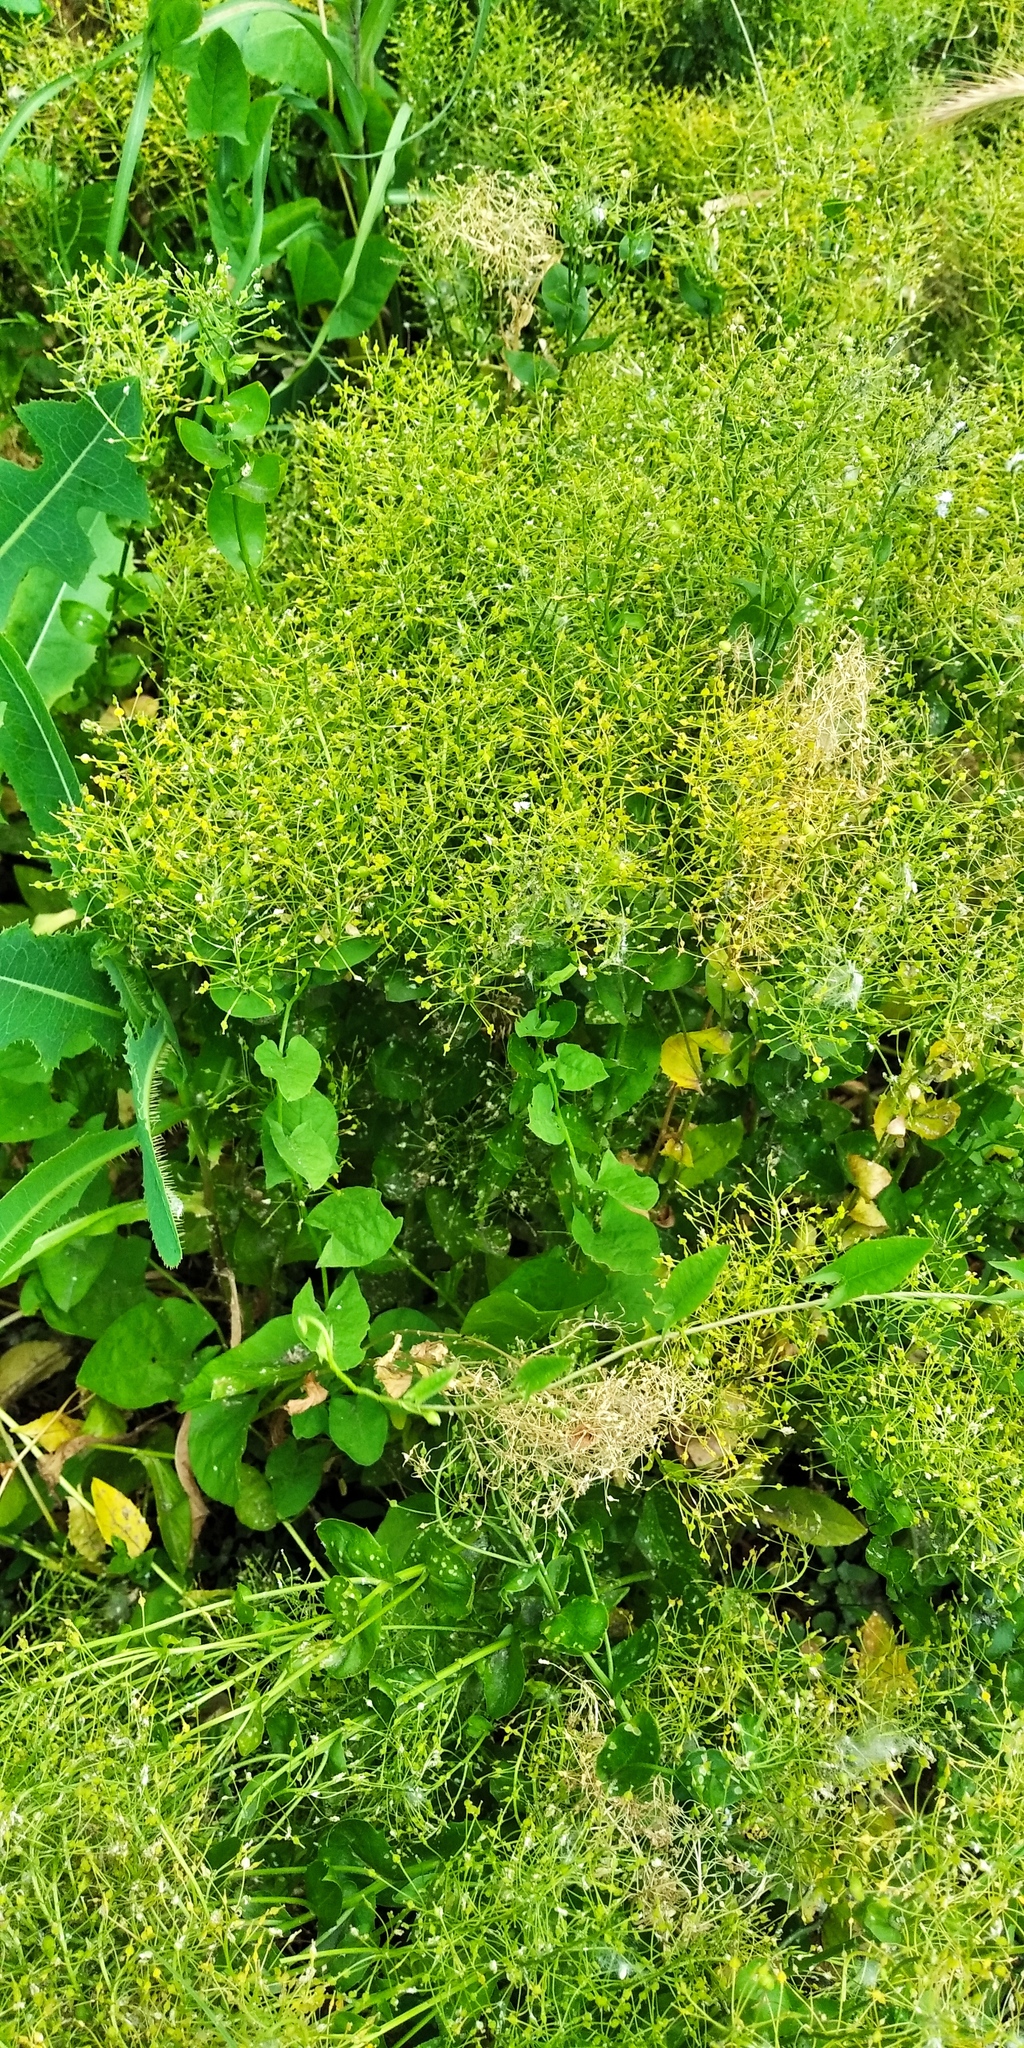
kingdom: Plantae
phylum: Tracheophyta
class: Magnoliopsida
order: Brassicales
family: Brassicaceae
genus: Lepidium
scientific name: Lepidium draba
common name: Hoary cress
